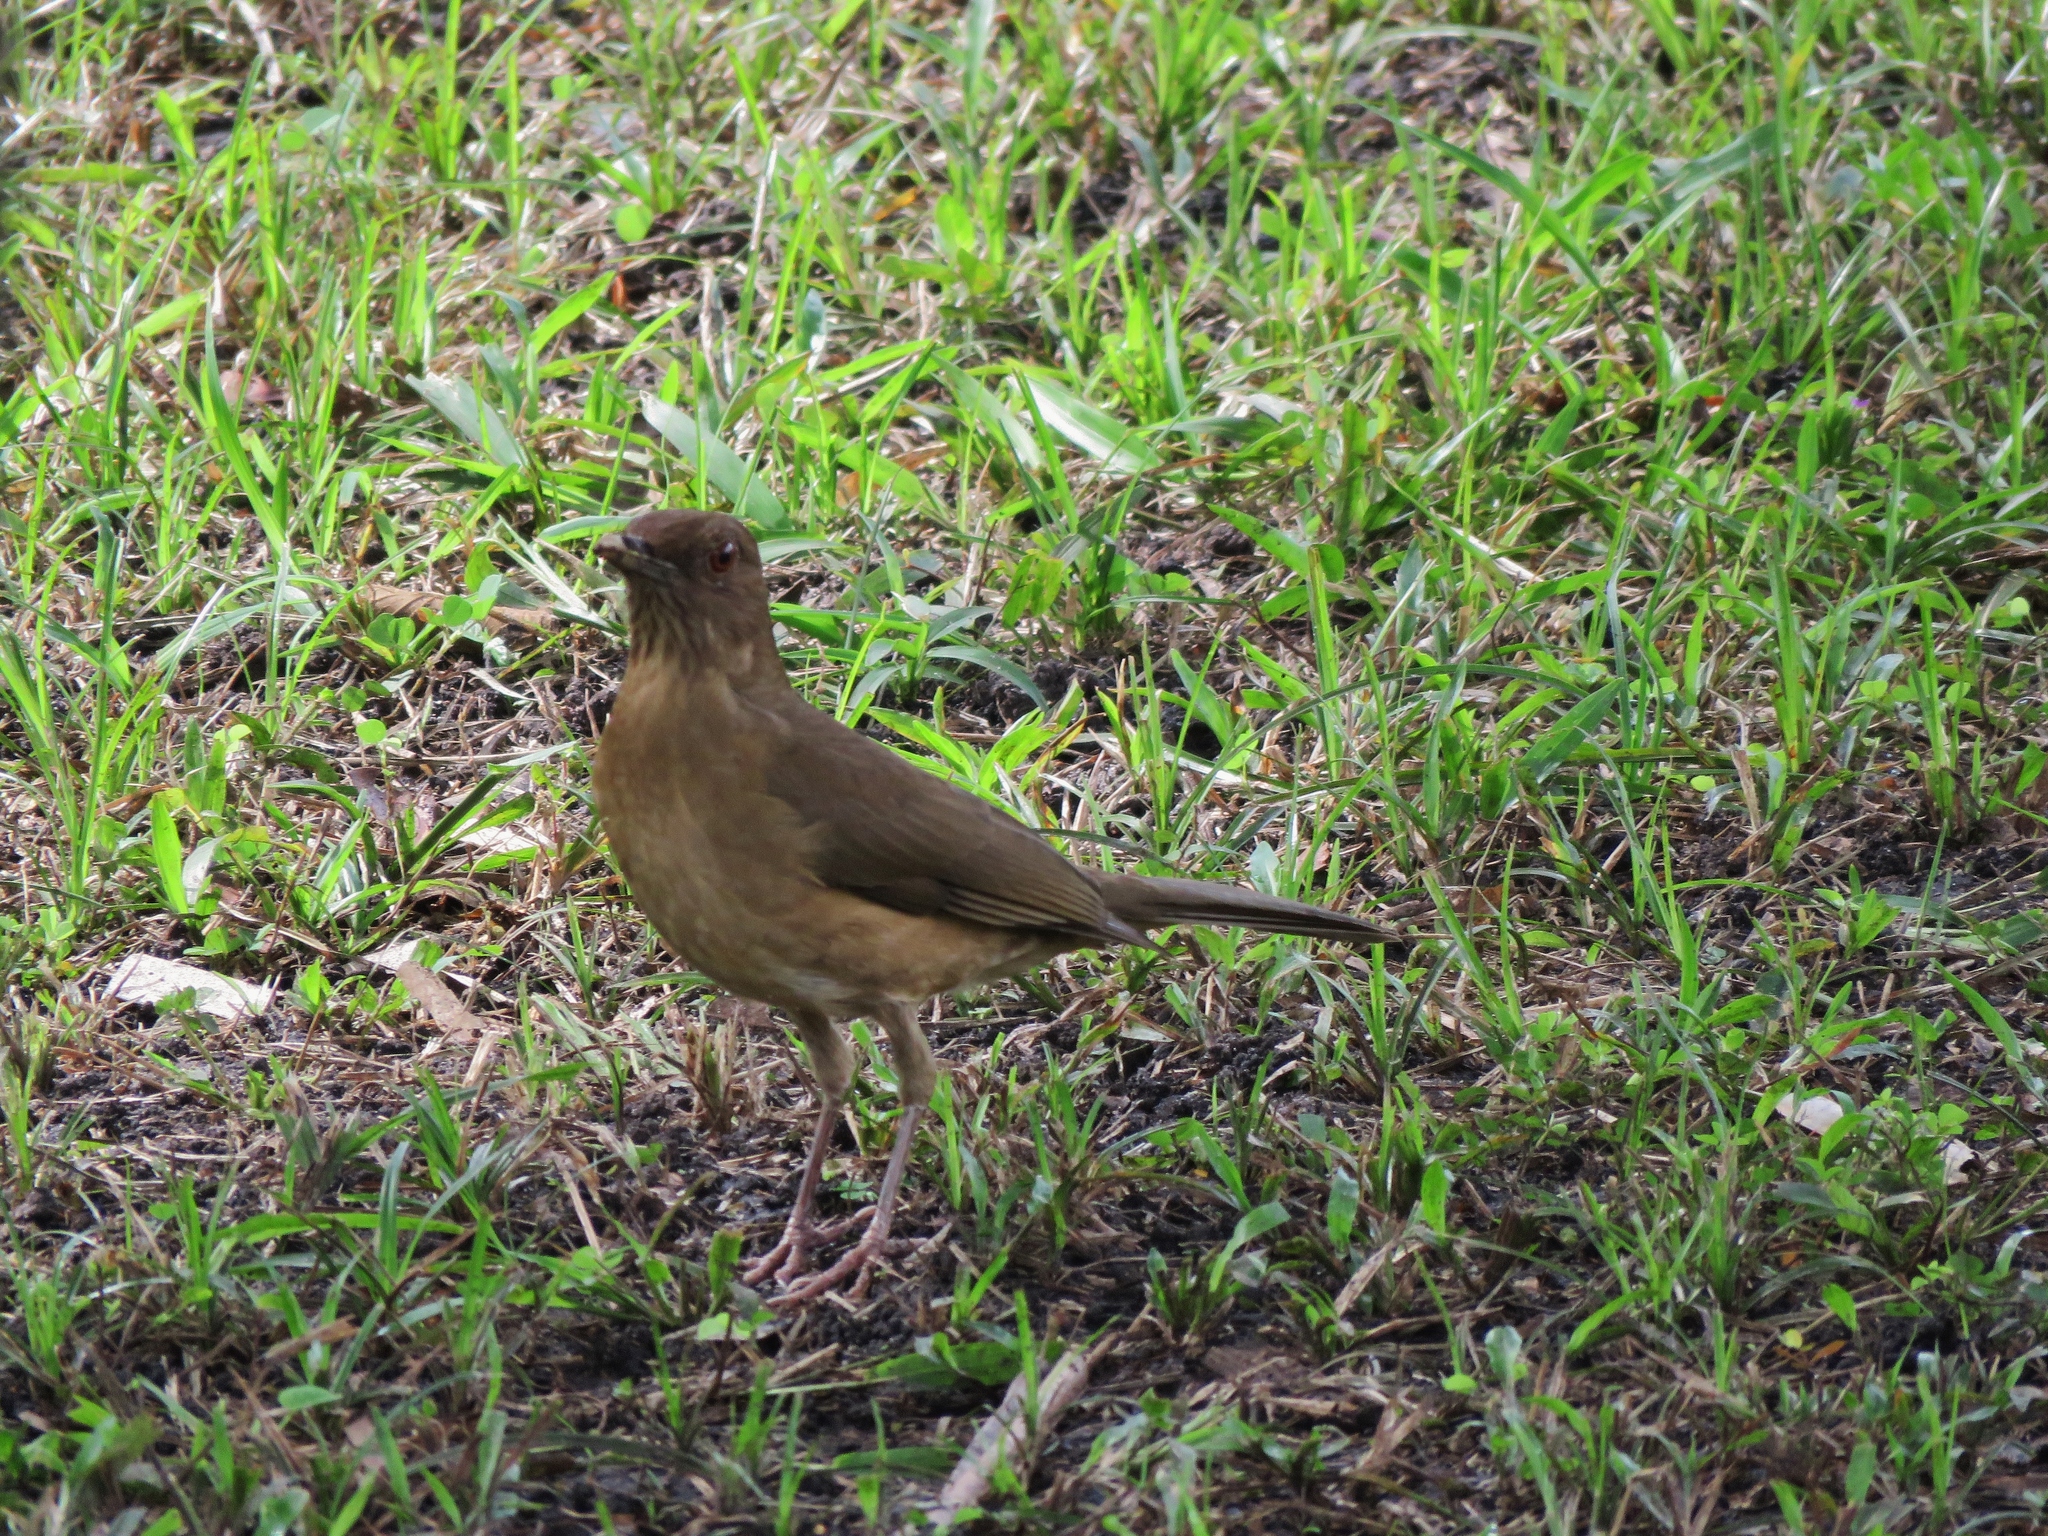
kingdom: Animalia
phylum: Chordata
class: Aves
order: Passeriformes
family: Turdidae
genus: Turdus
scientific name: Turdus grayi
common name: Clay-colored thrush
